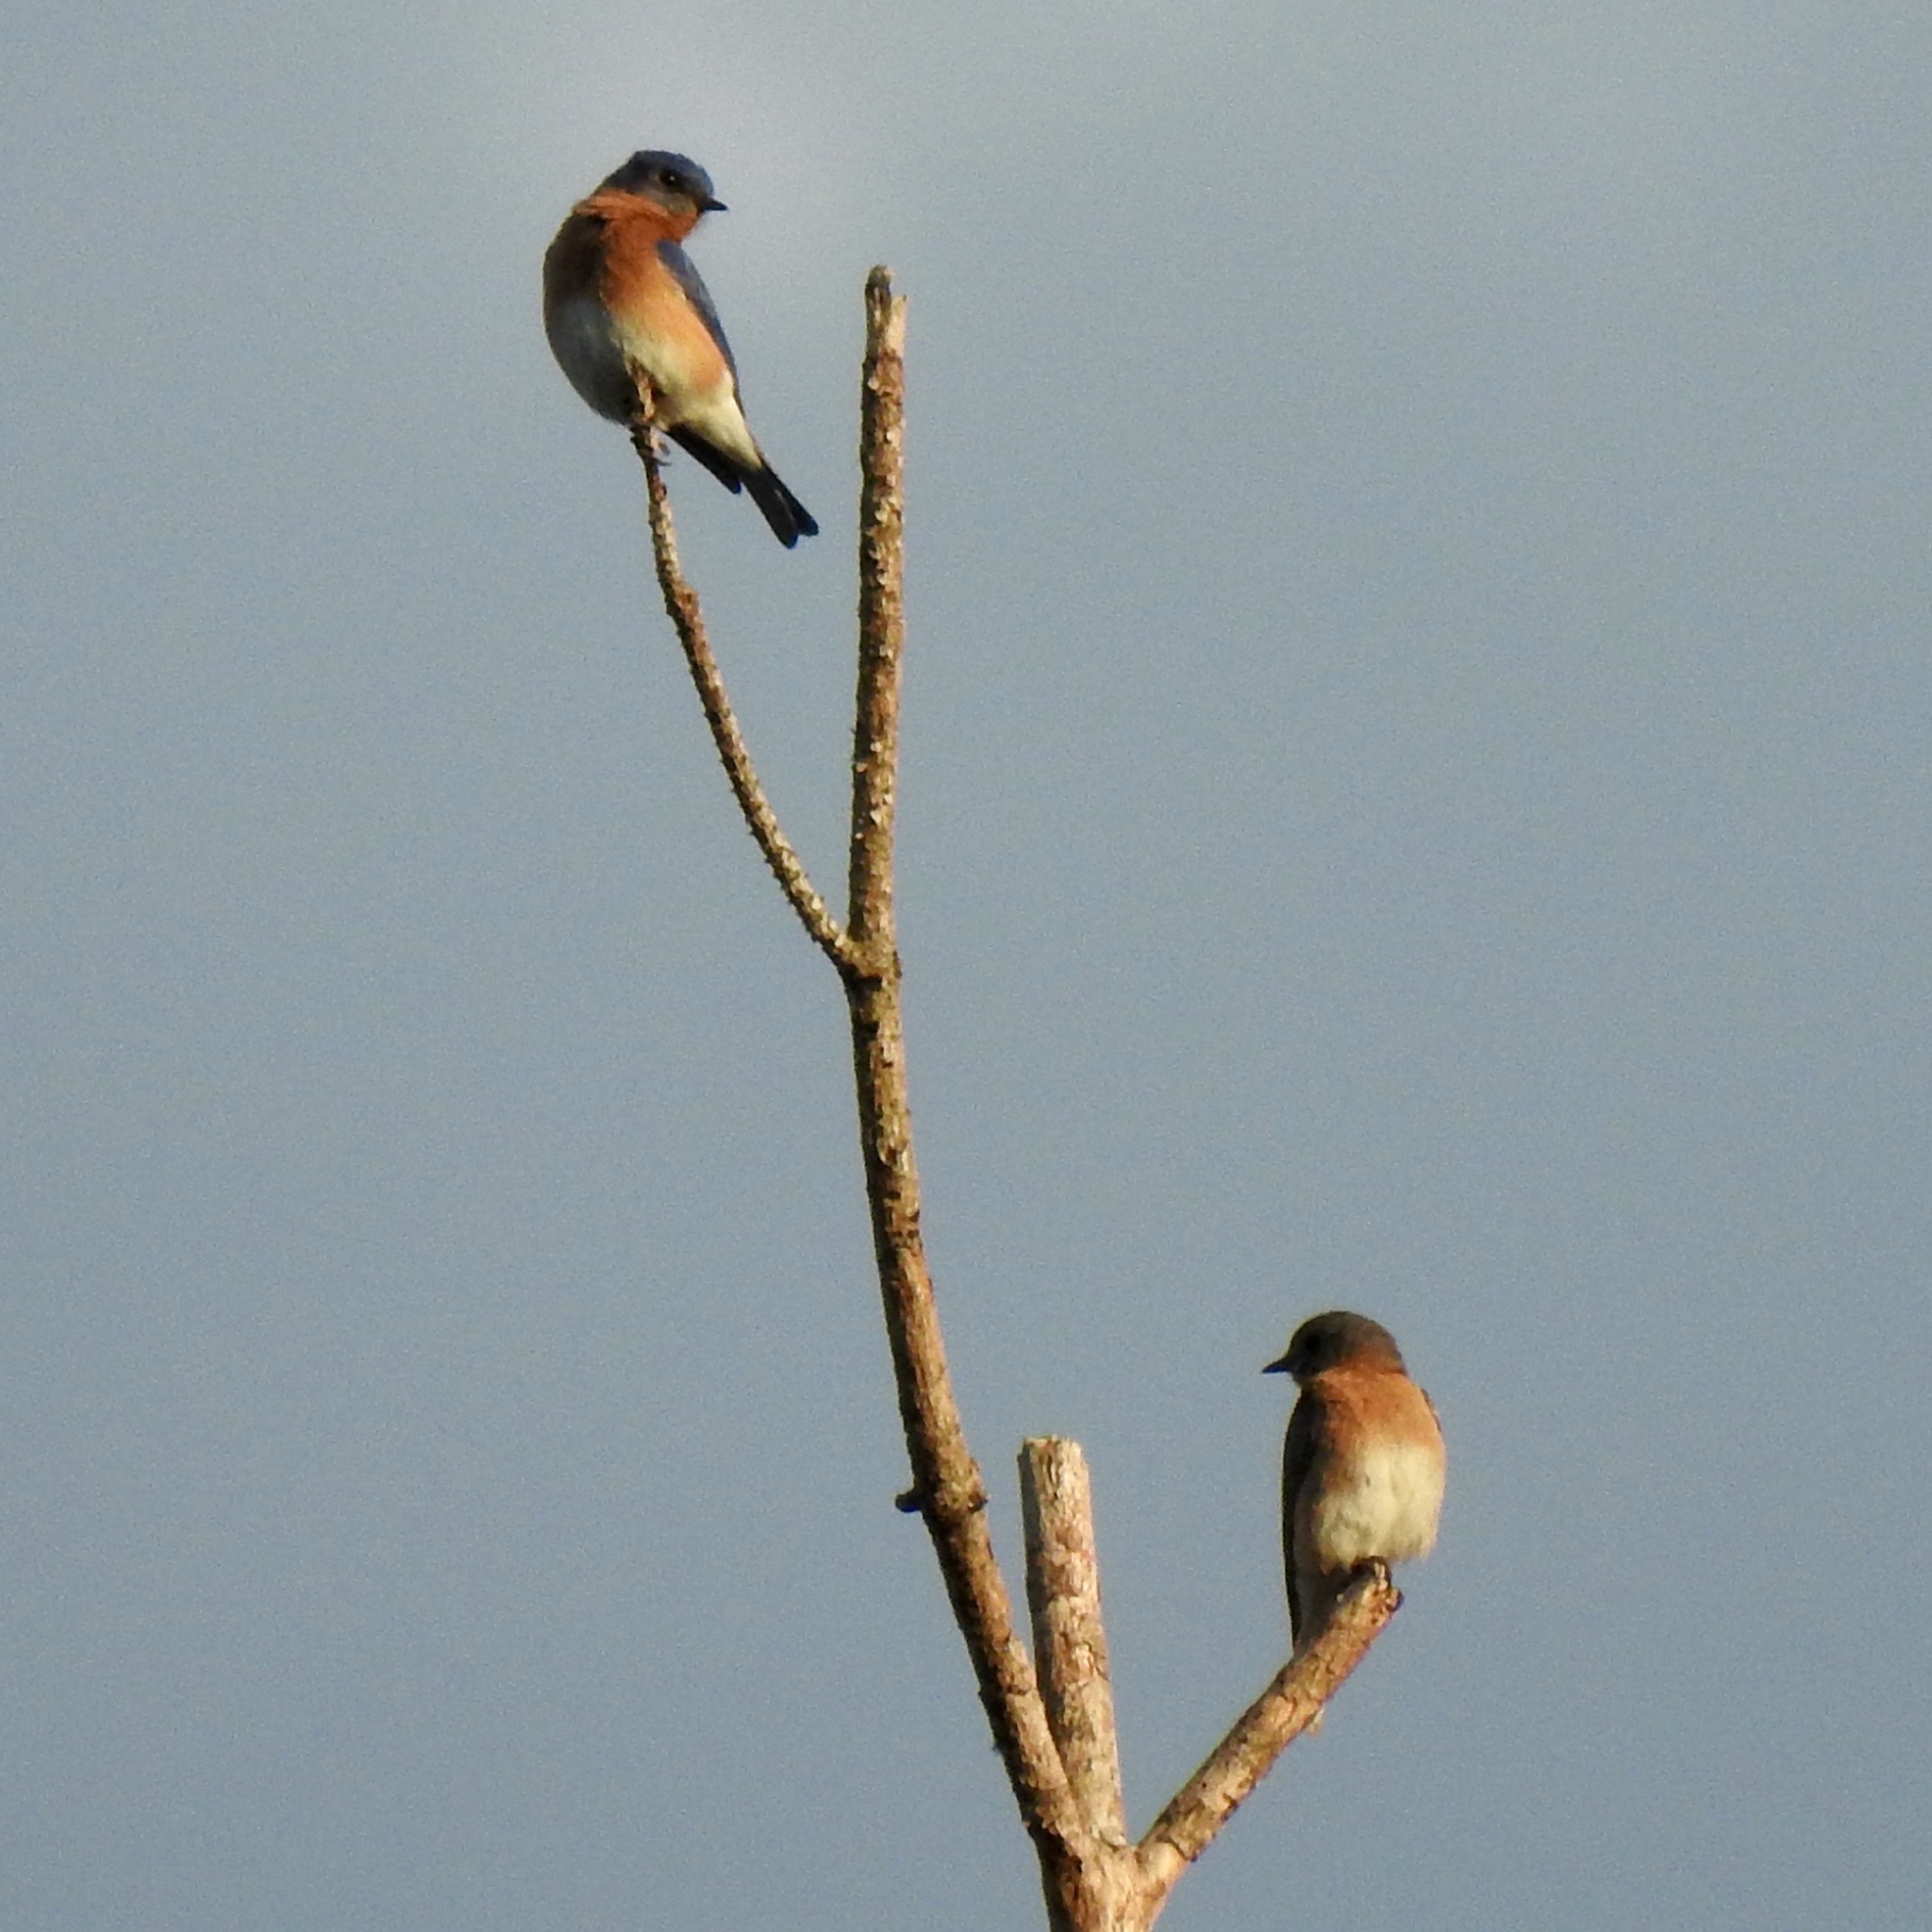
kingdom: Animalia
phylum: Chordata
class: Aves
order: Passeriformes
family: Turdidae
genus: Sialia
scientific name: Sialia sialis
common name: Eastern bluebird
